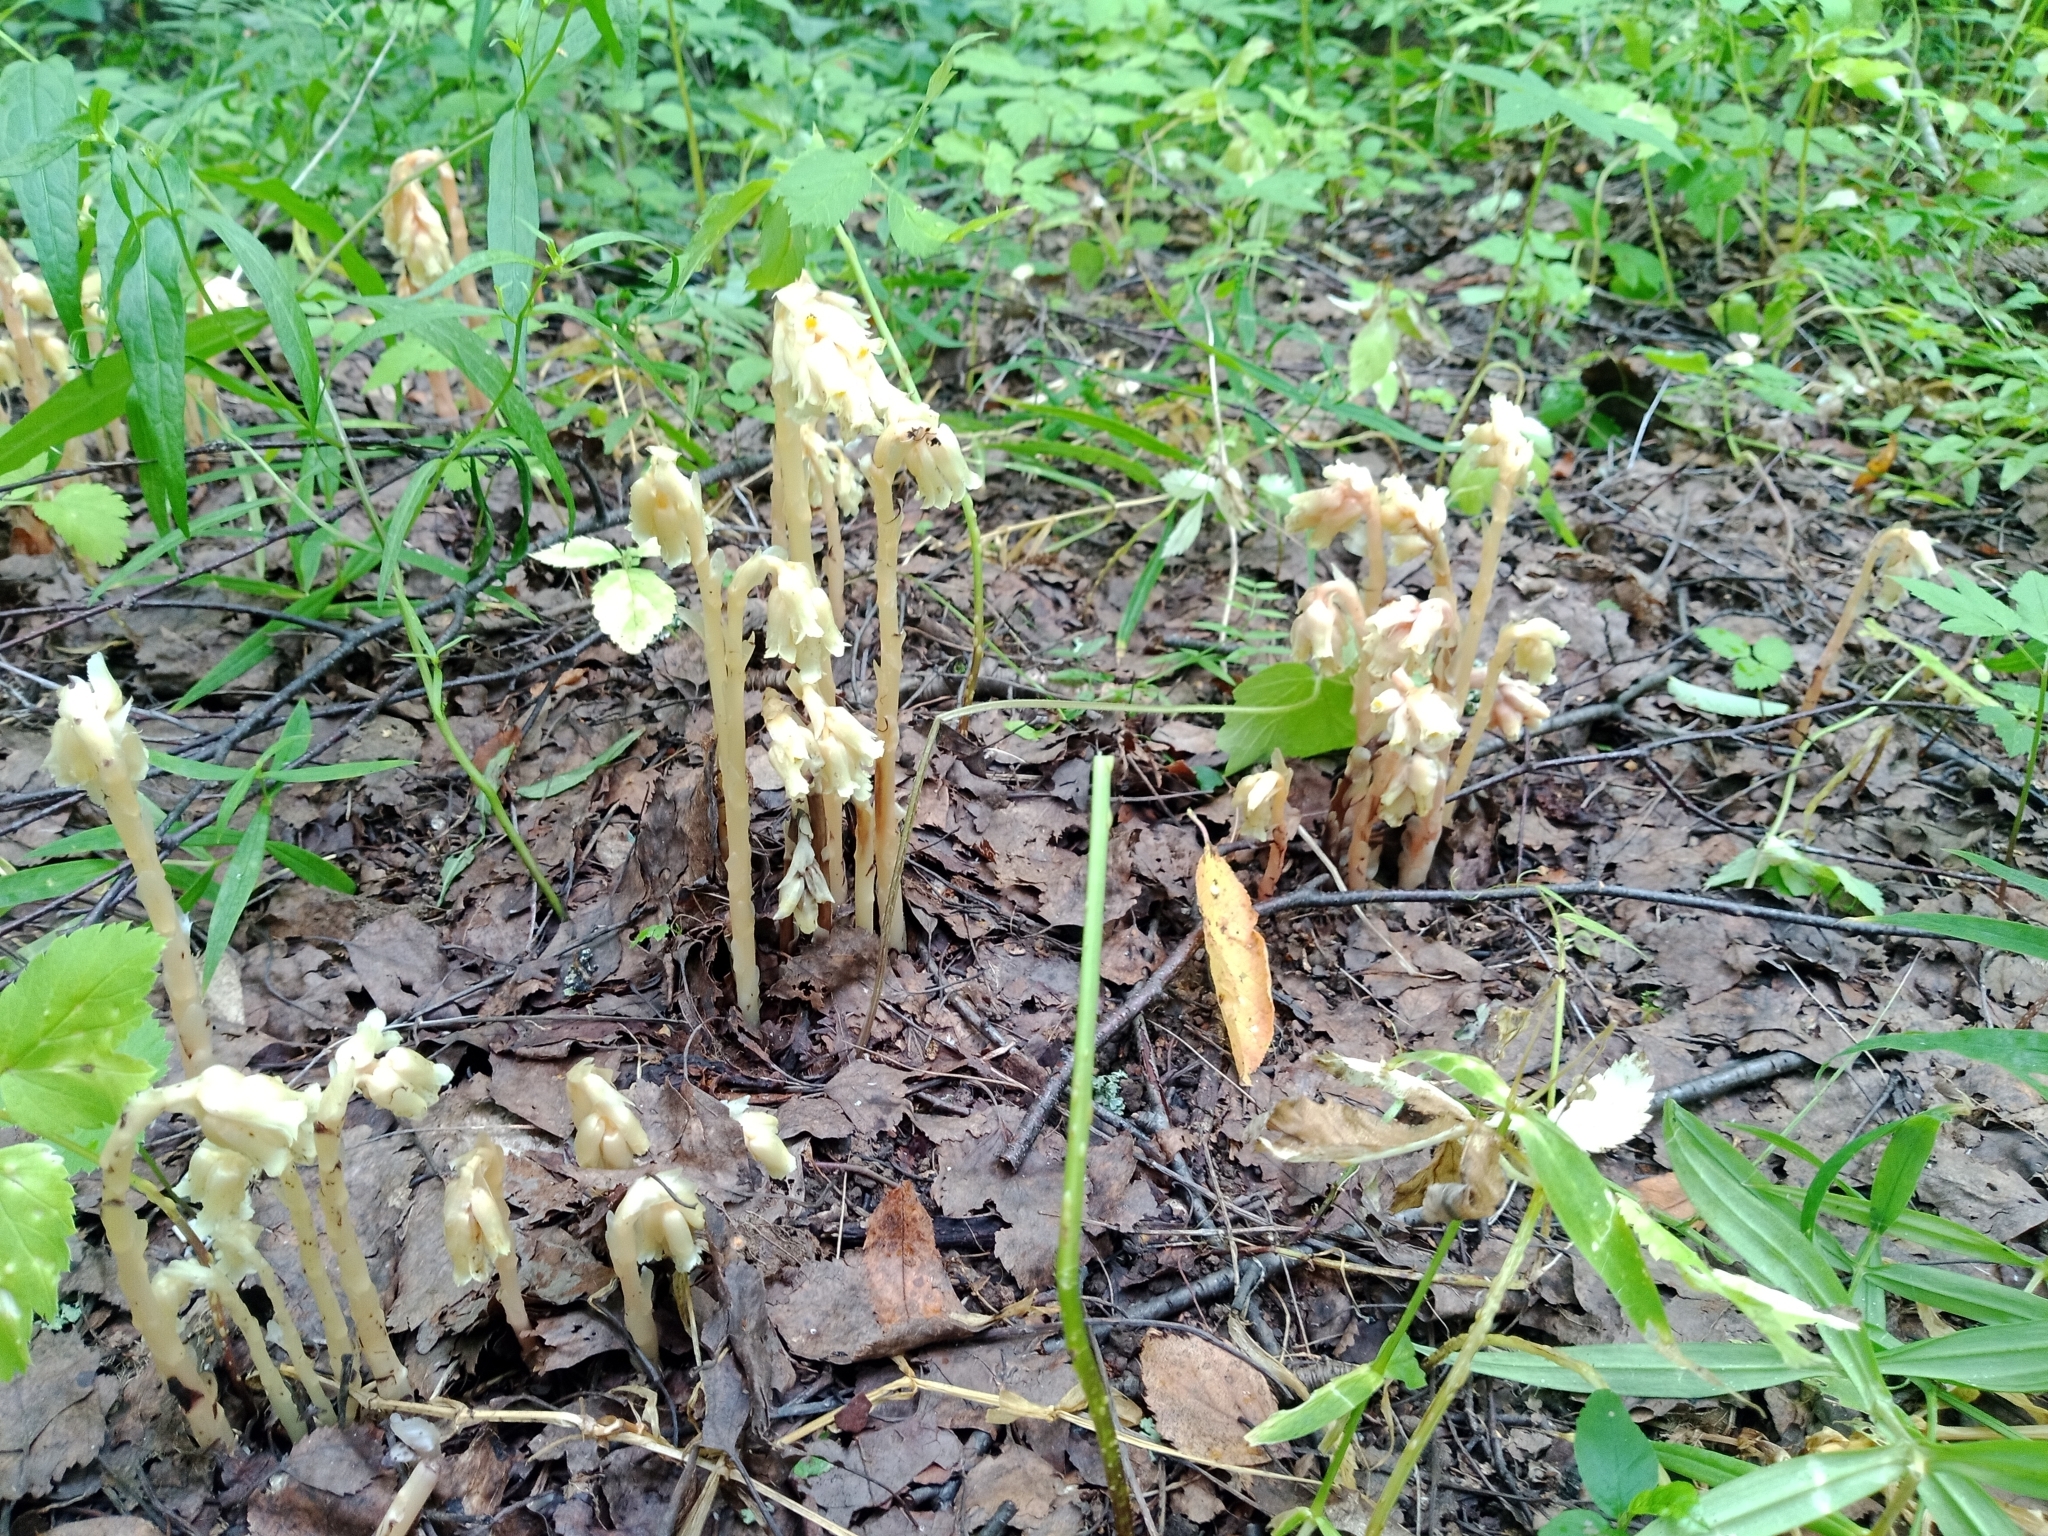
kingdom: Plantae
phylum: Tracheophyta
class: Magnoliopsida
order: Ericales
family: Ericaceae
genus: Hypopitys
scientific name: Hypopitys monotropa
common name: Yellow bird's-nest
